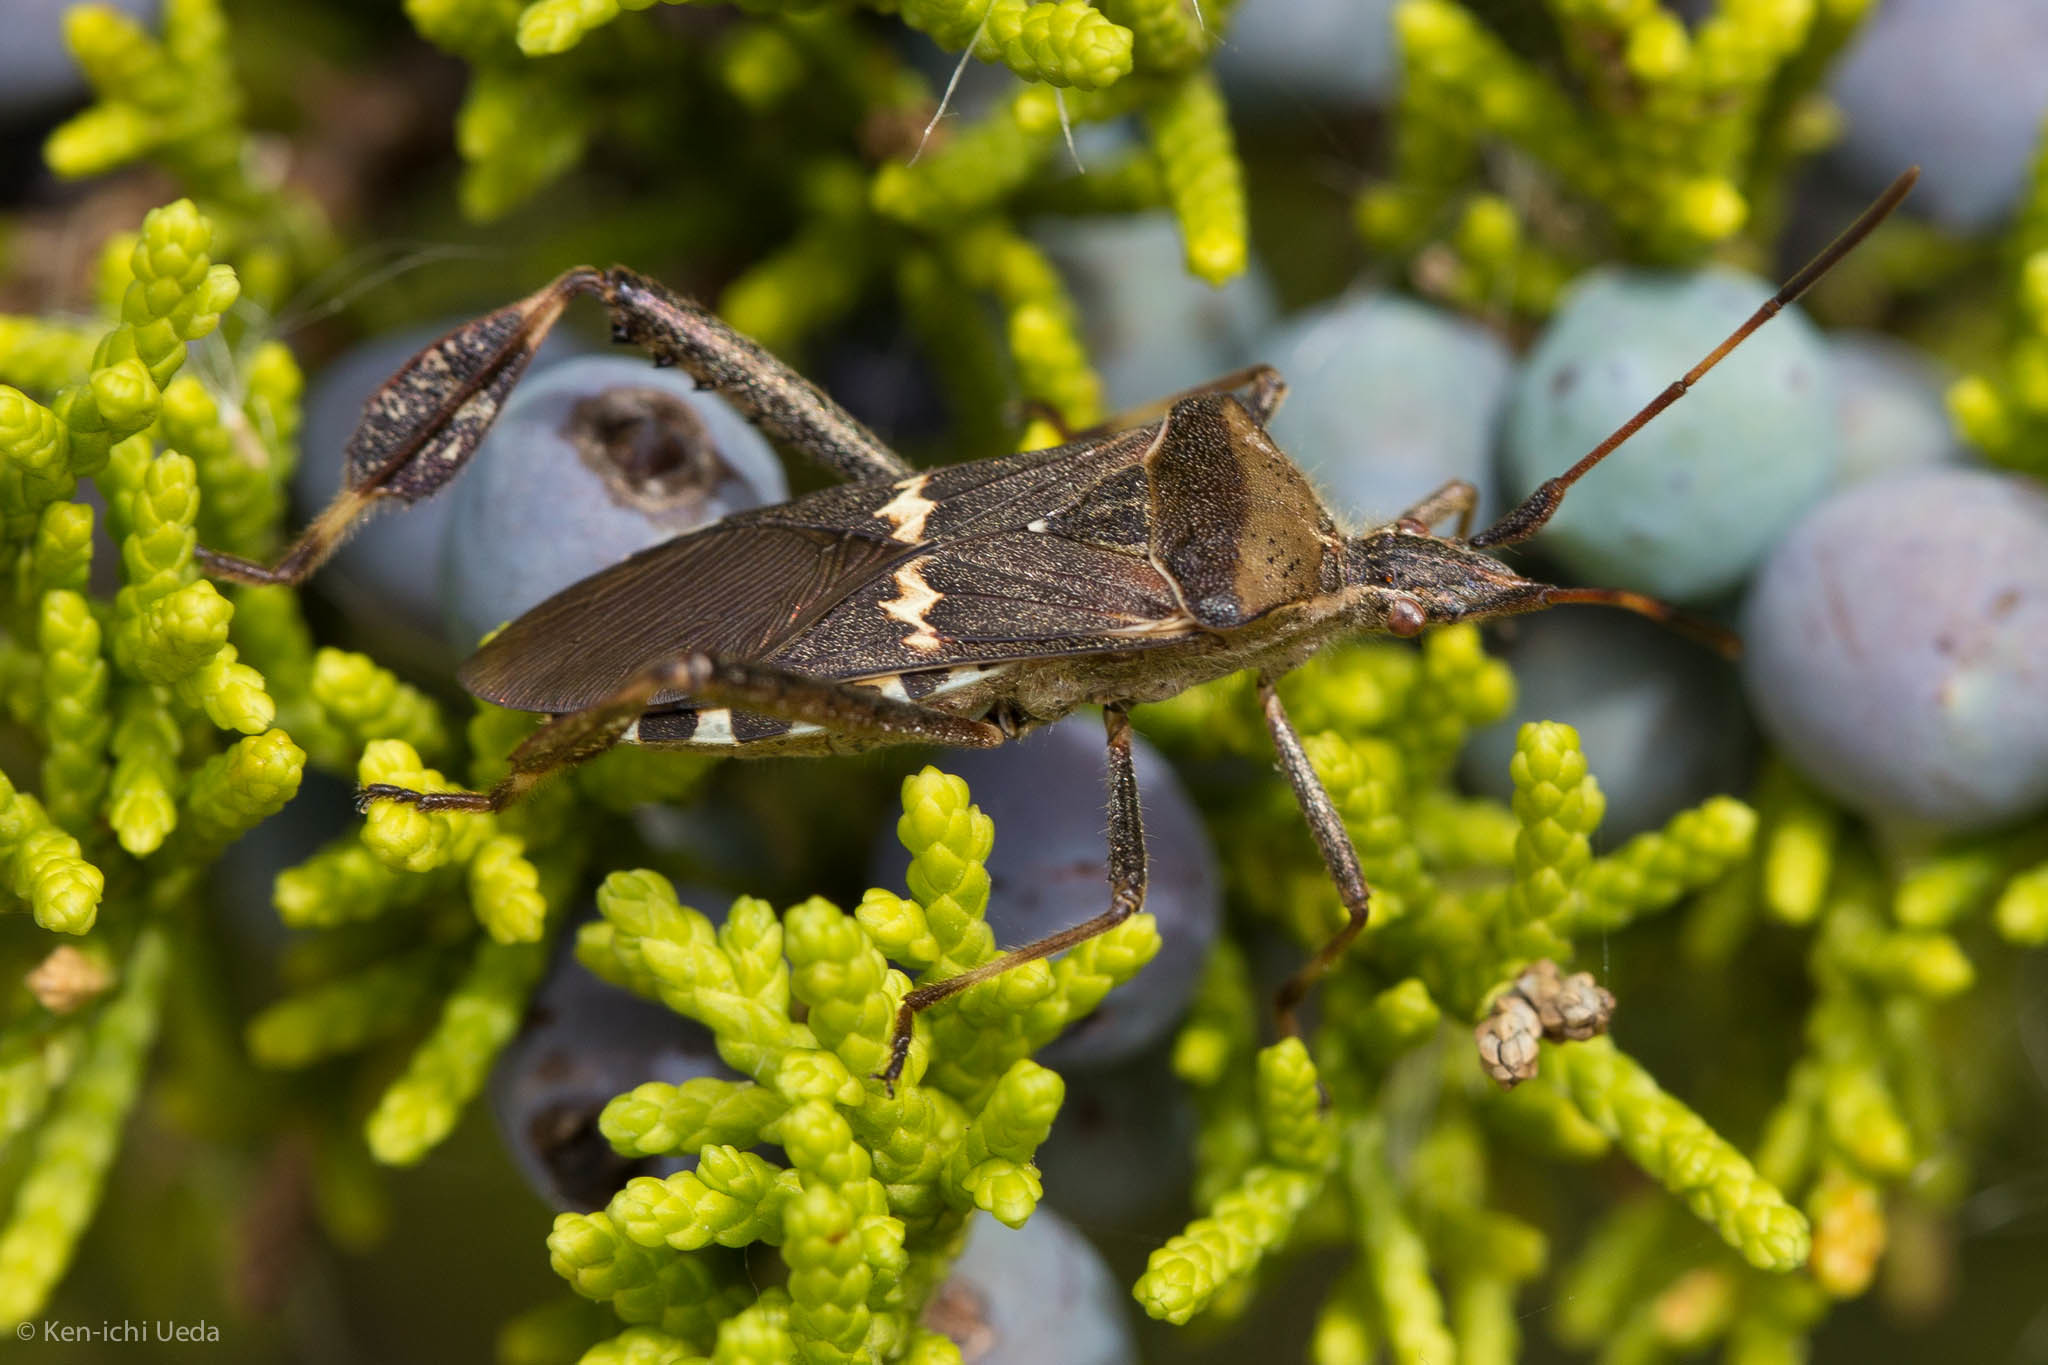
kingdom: Animalia
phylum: Arthropoda
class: Insecta
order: Hemiptera
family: Coreidae
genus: Leptoglossus
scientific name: Leptoglossus clypealis
